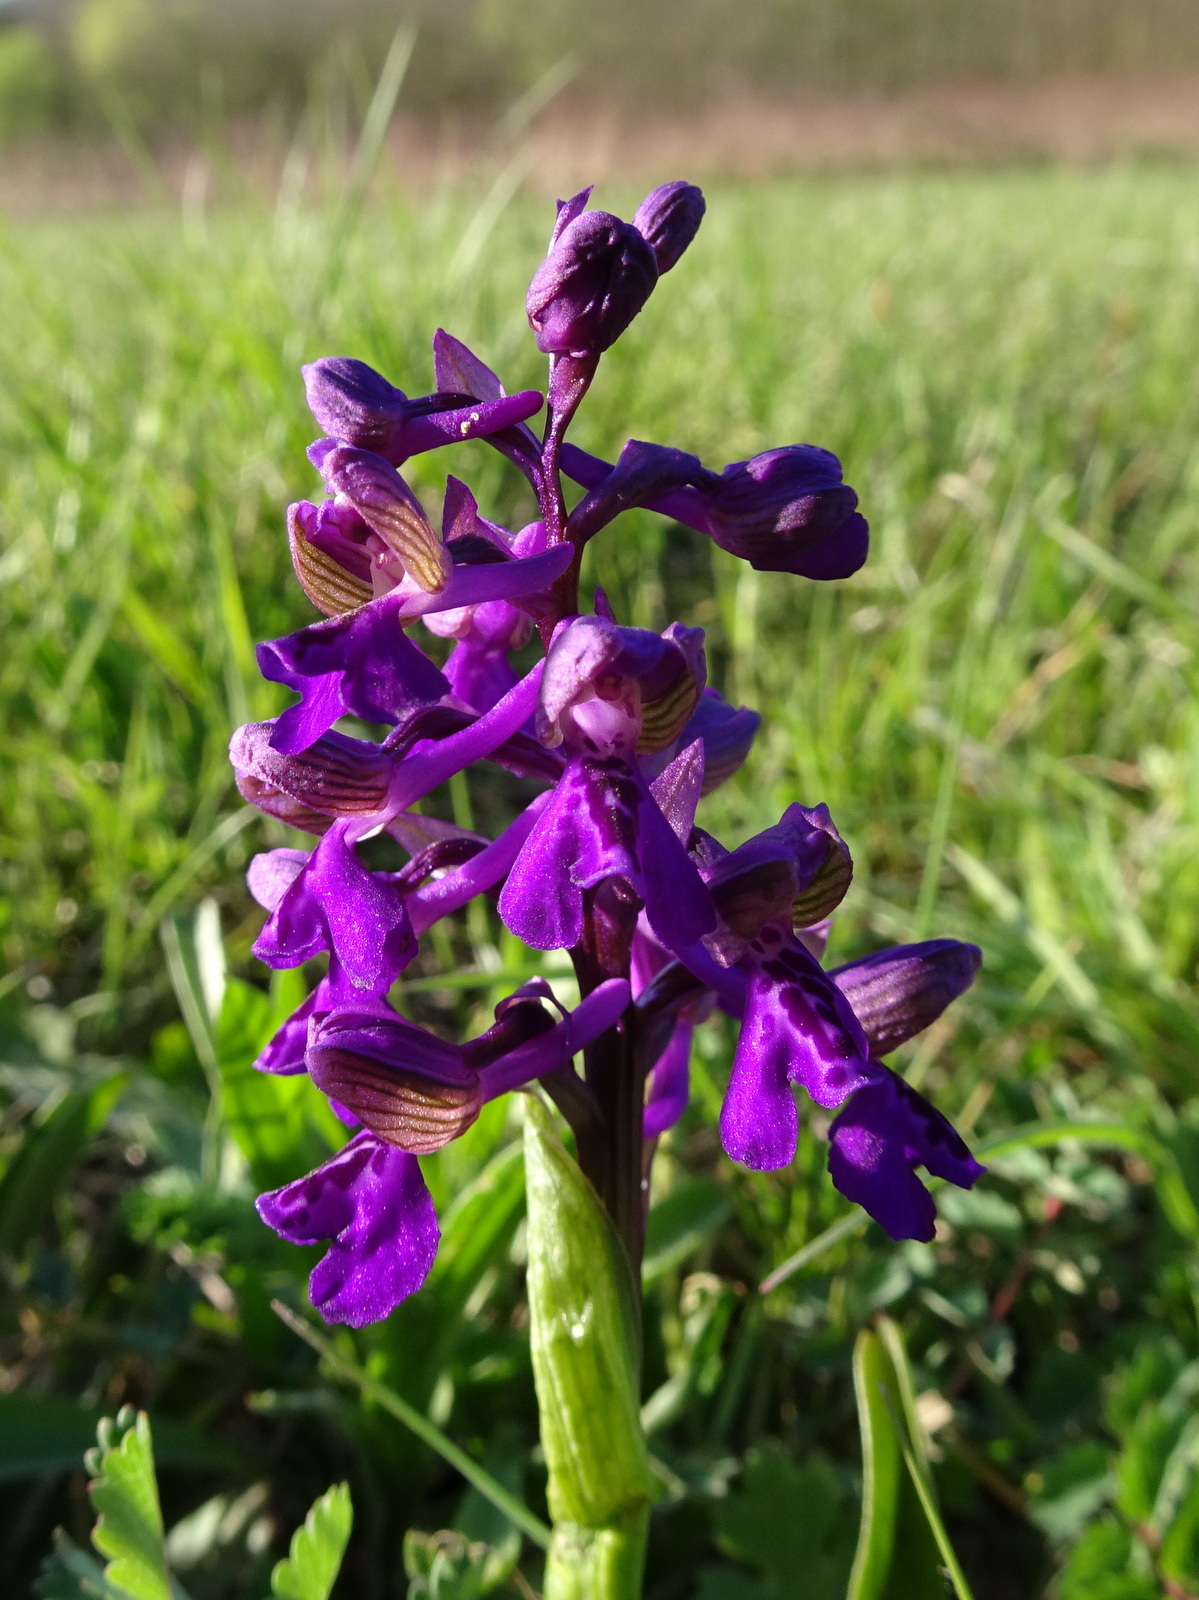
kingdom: Plantae
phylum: Tracheophyta
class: Liliopsida
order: Asparagales
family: Orchidaceae
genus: Anacamptis
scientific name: Anacamptis morio
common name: Green-winged orchid
